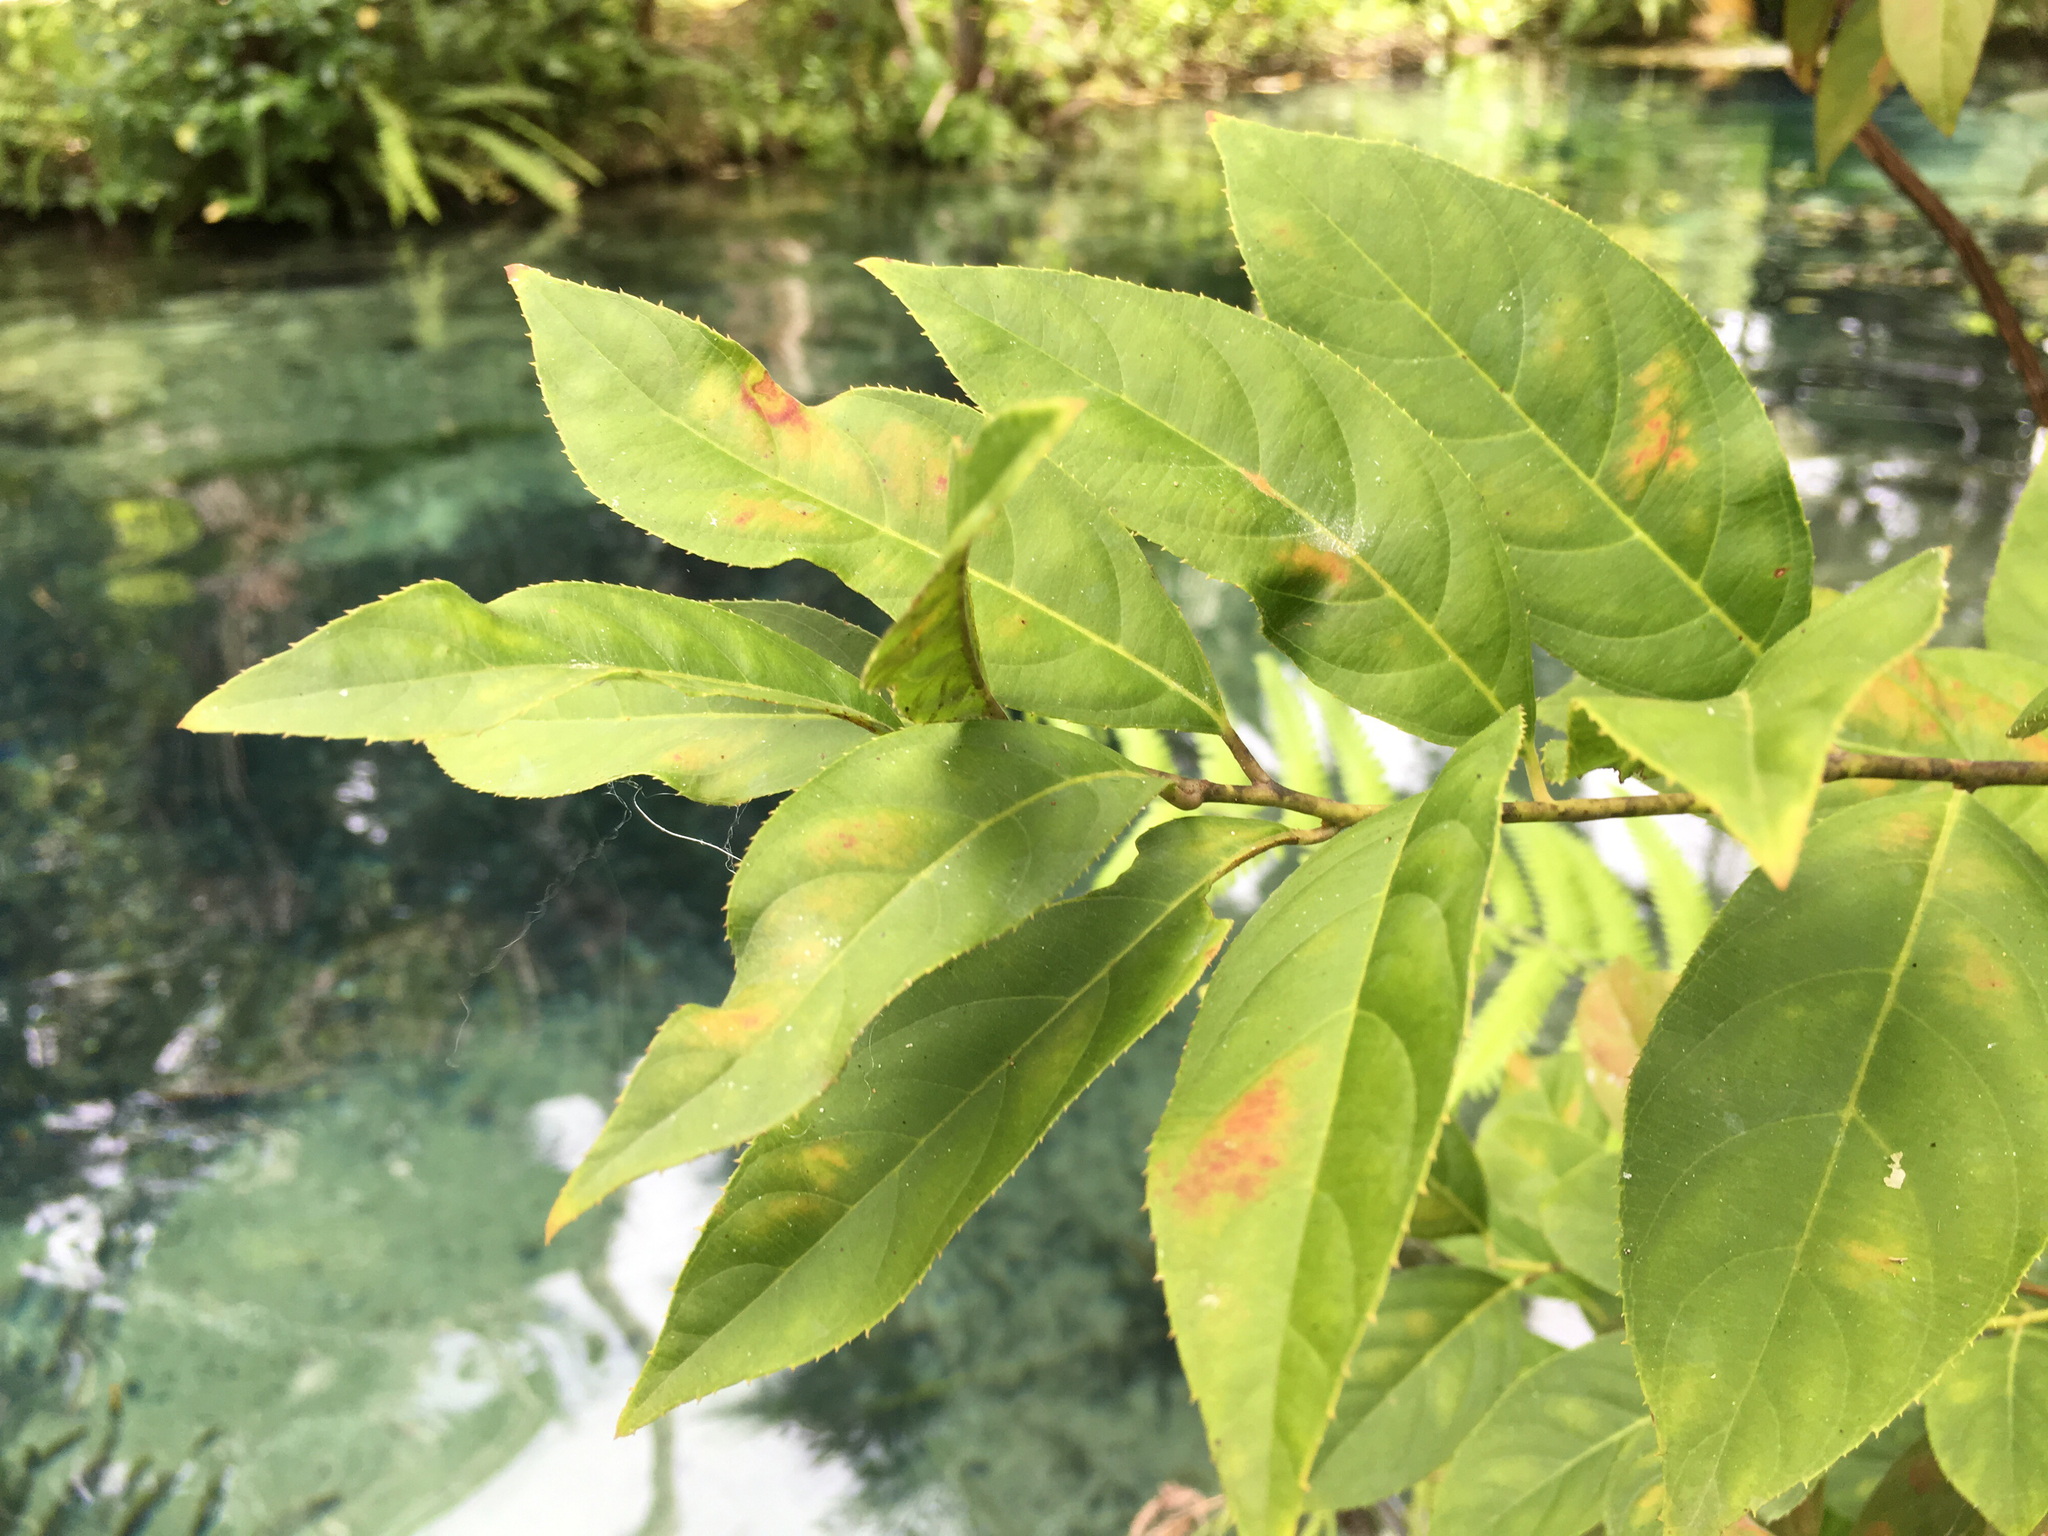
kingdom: Plantae
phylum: Tracheophyta
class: Magnoliopsida
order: Saxifragales
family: Iteaceae
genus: Itea
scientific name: Itea virginica
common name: Sweetspire
